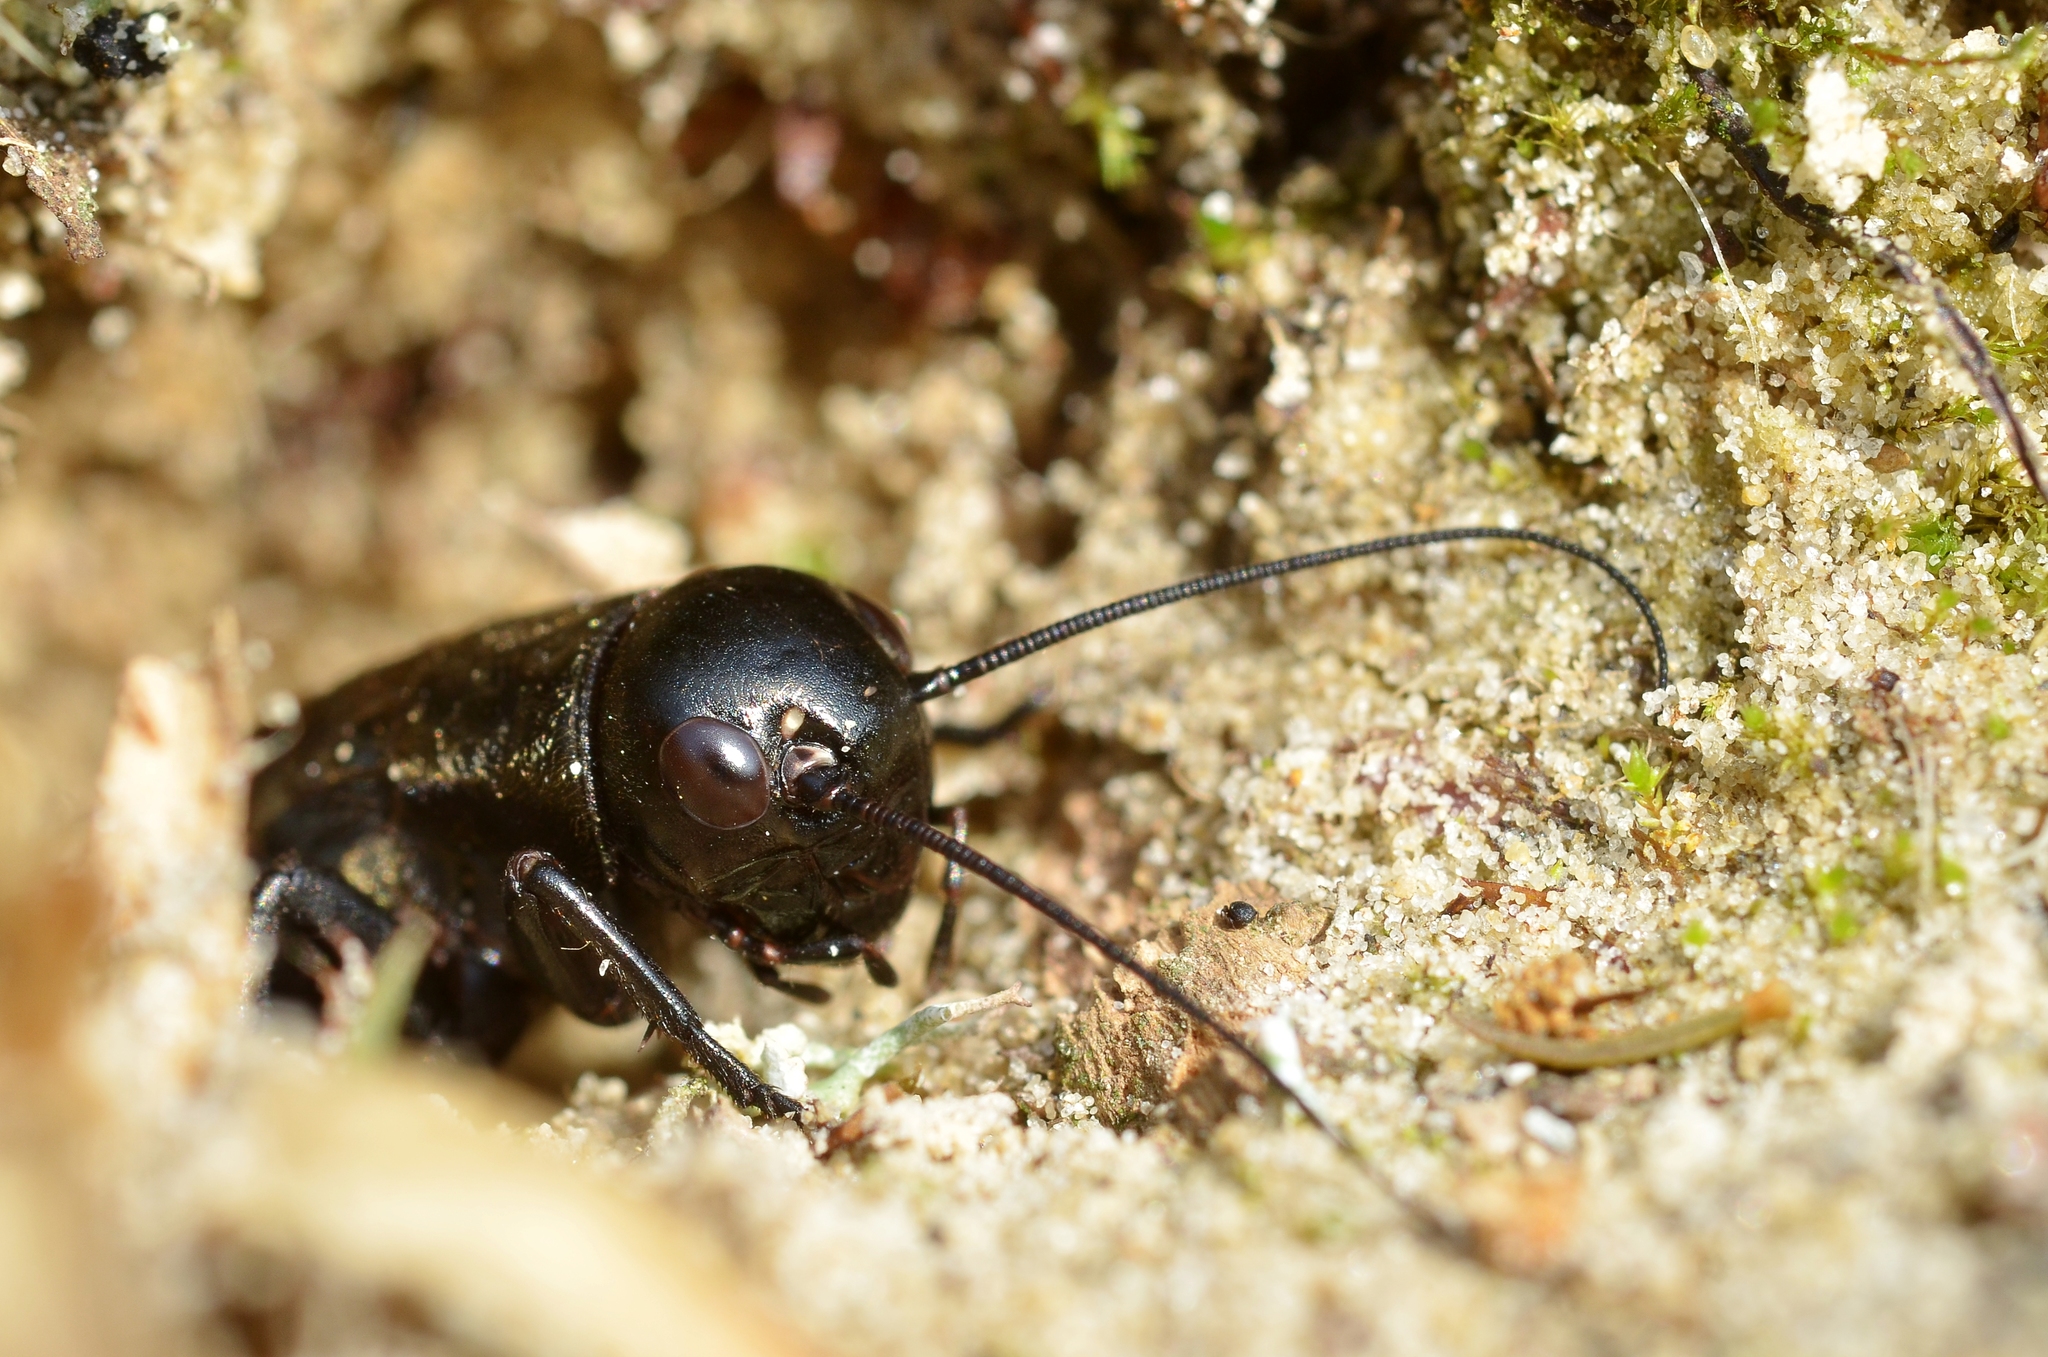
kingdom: Animalia
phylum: Arthropoda
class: Insecta
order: Orthoptera
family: Gryllidae
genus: Gryllus
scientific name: Gryllus campestris
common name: Field cricket
